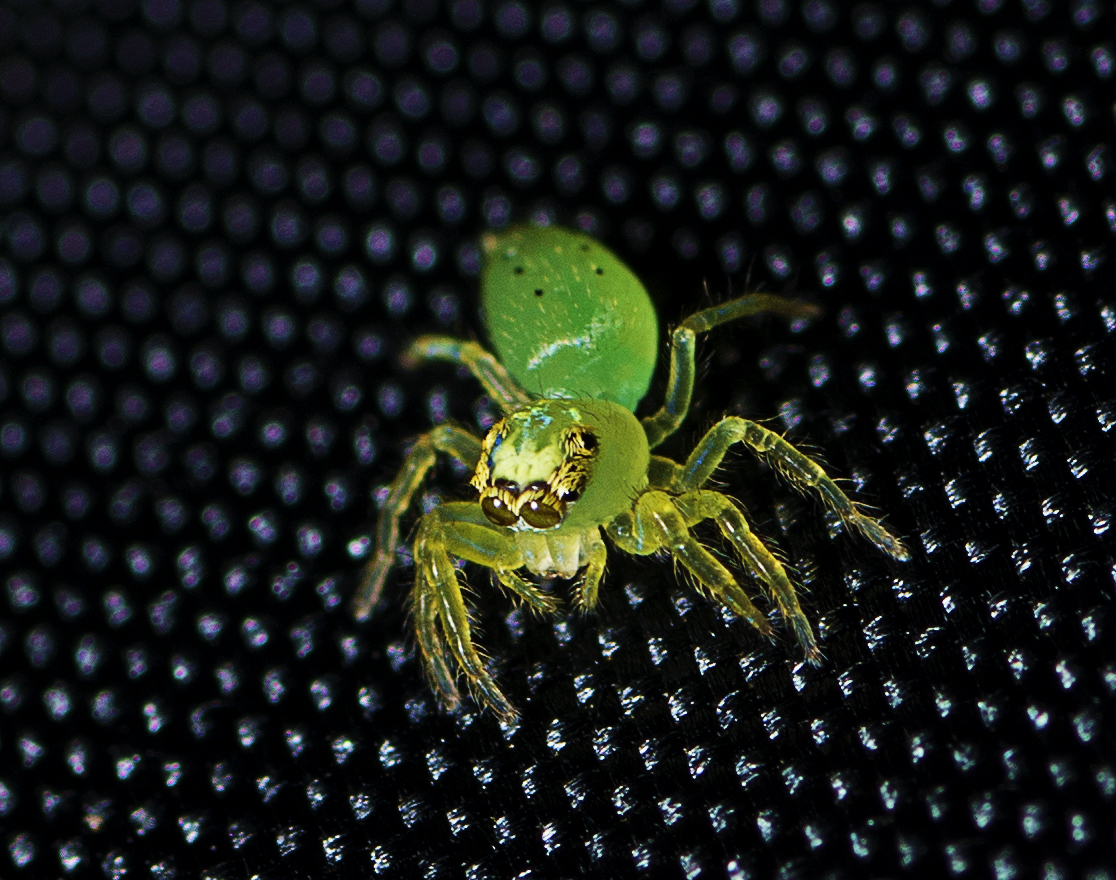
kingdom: Animalia
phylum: Arthropoda
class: Arachnida
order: Araneae
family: Salticidae
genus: Mopsus
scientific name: Mopsus mormon
